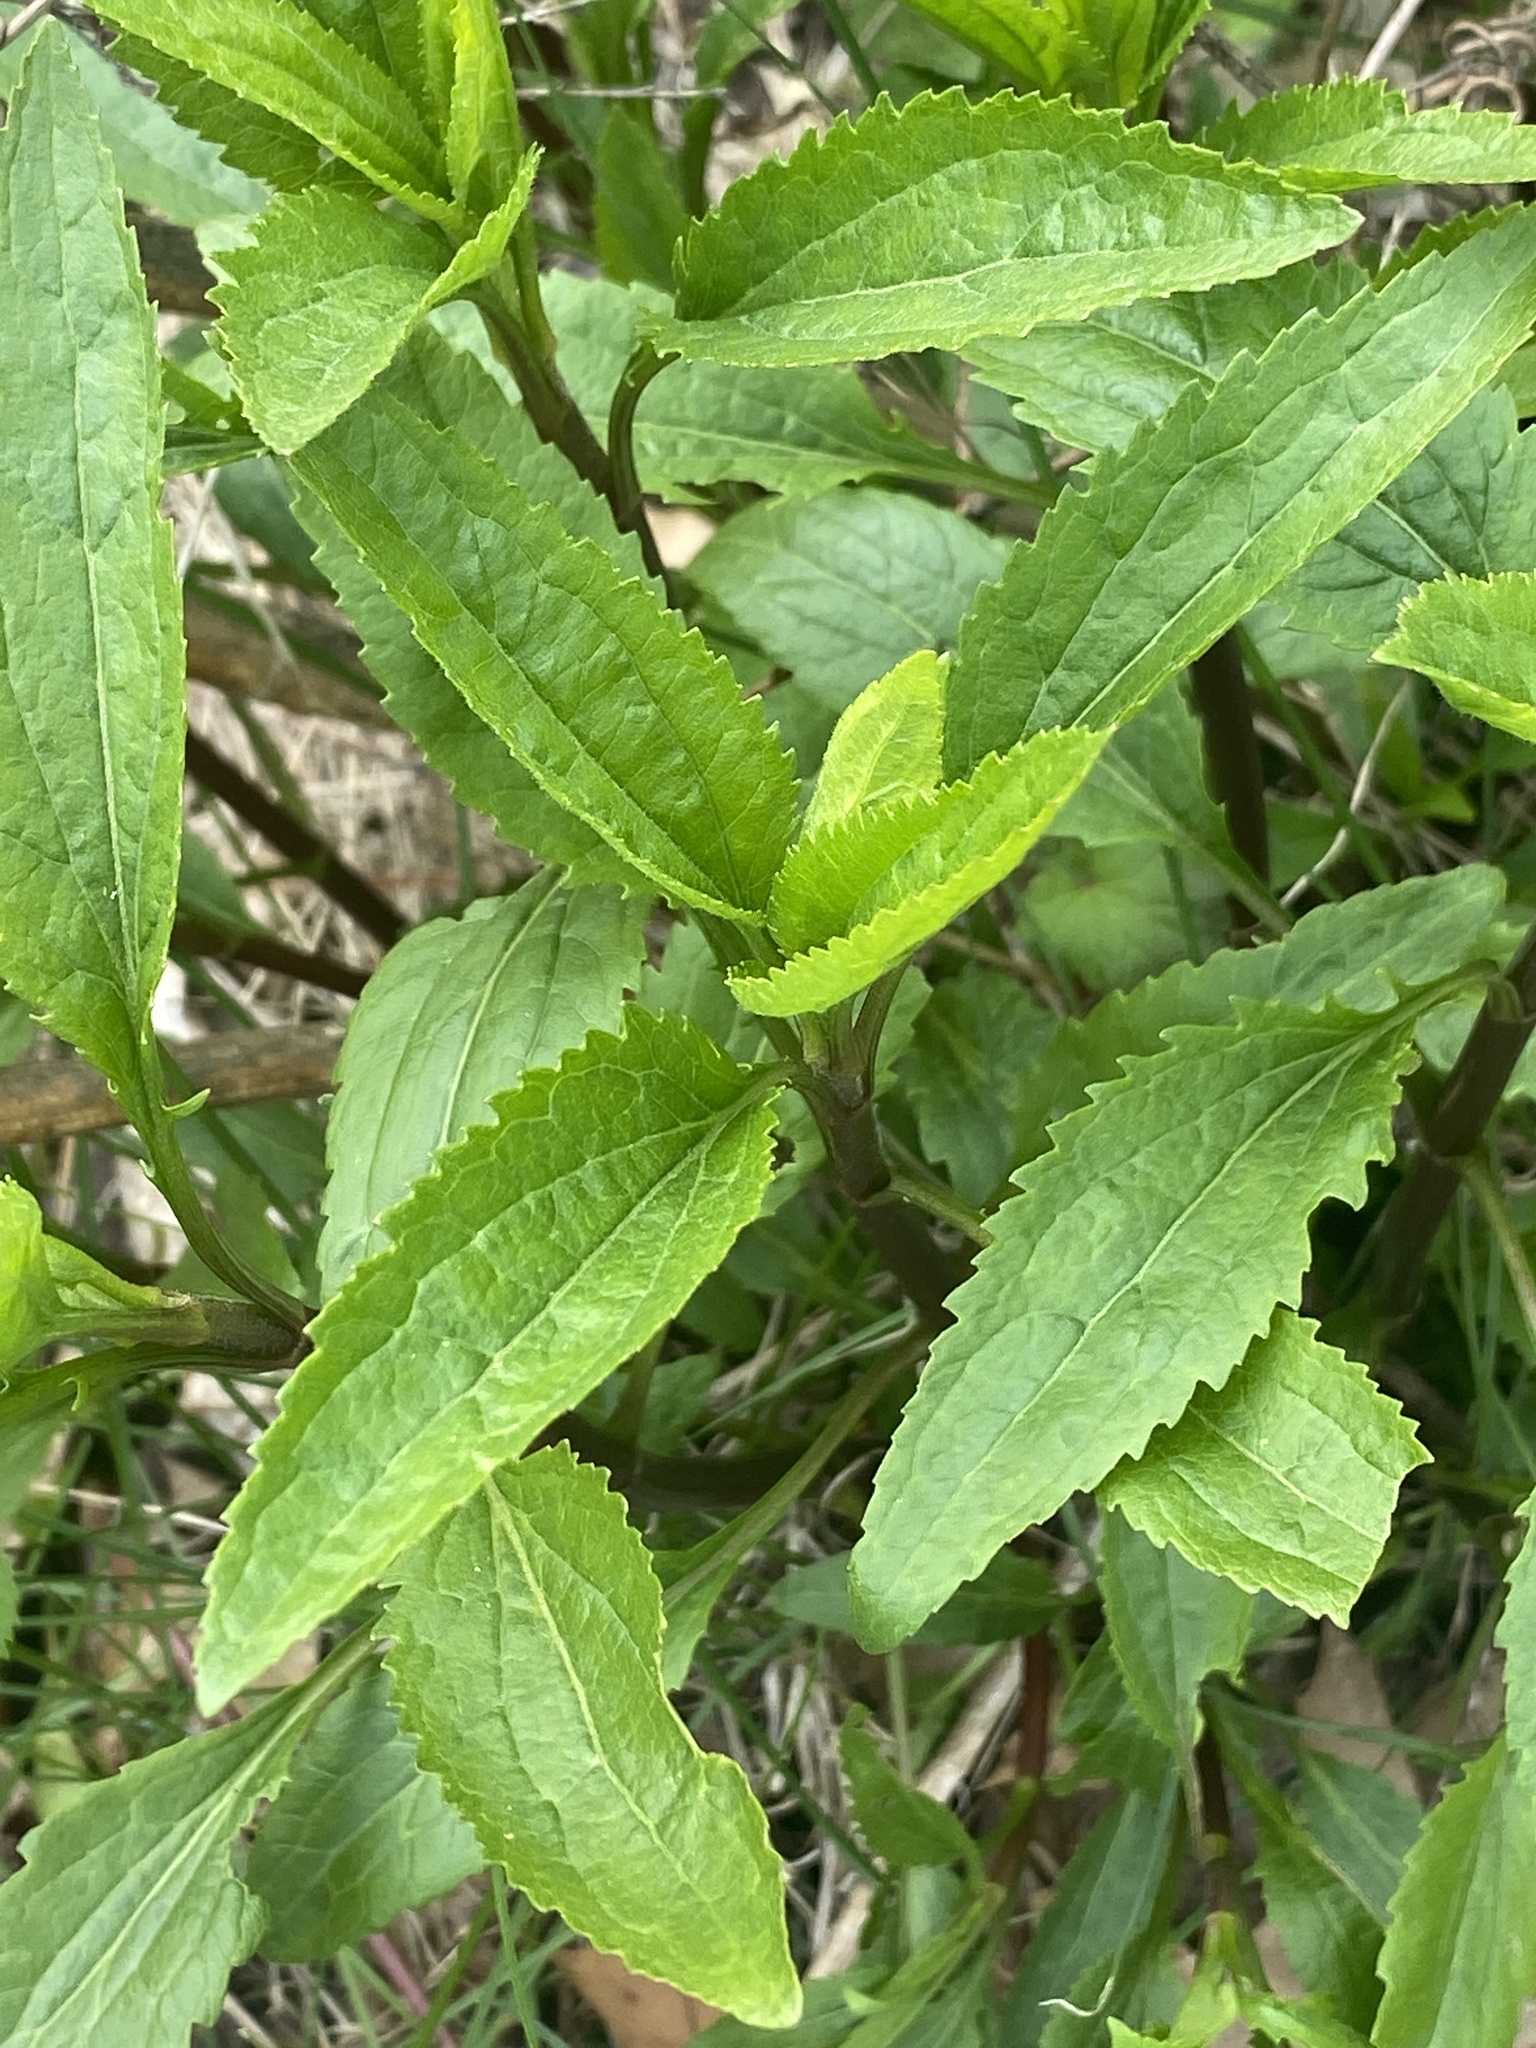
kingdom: Plantae
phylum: Tracheophyta
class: Magnoliopsida
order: Asterales
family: Asteraceae
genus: Eupatorium
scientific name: Eupatorium serotinum
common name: Late boneset
